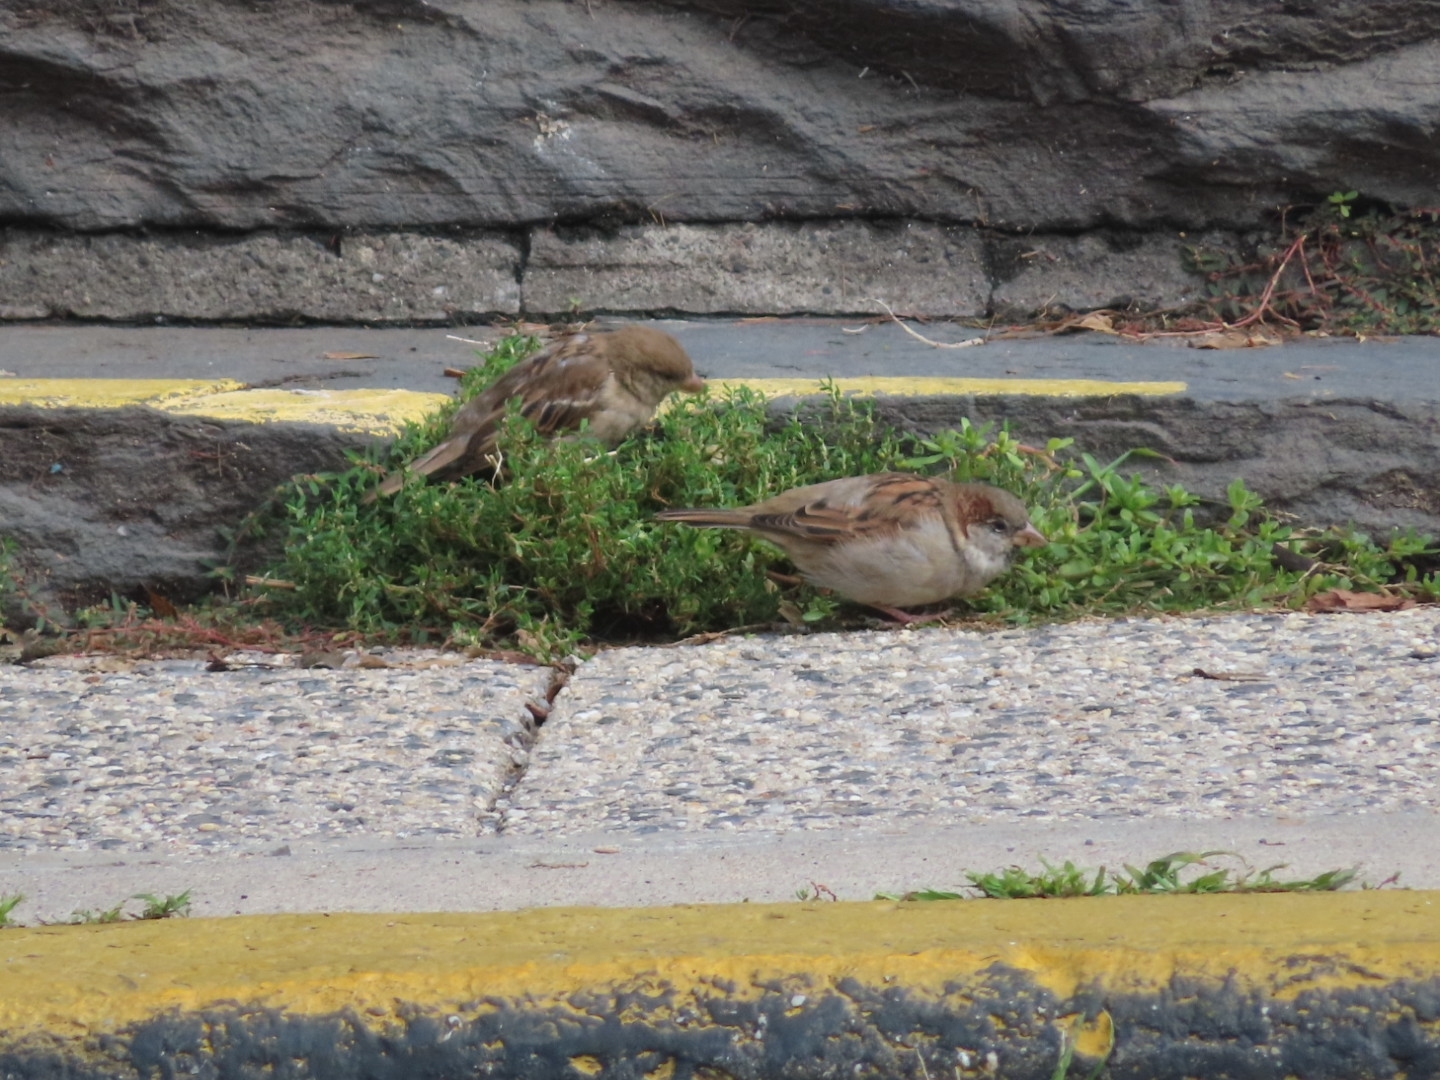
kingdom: Animalia
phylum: Chordata
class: Aves
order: Passeriformes
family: Passeridae
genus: Passer
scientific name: Passer domesticus
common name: House sparrow
